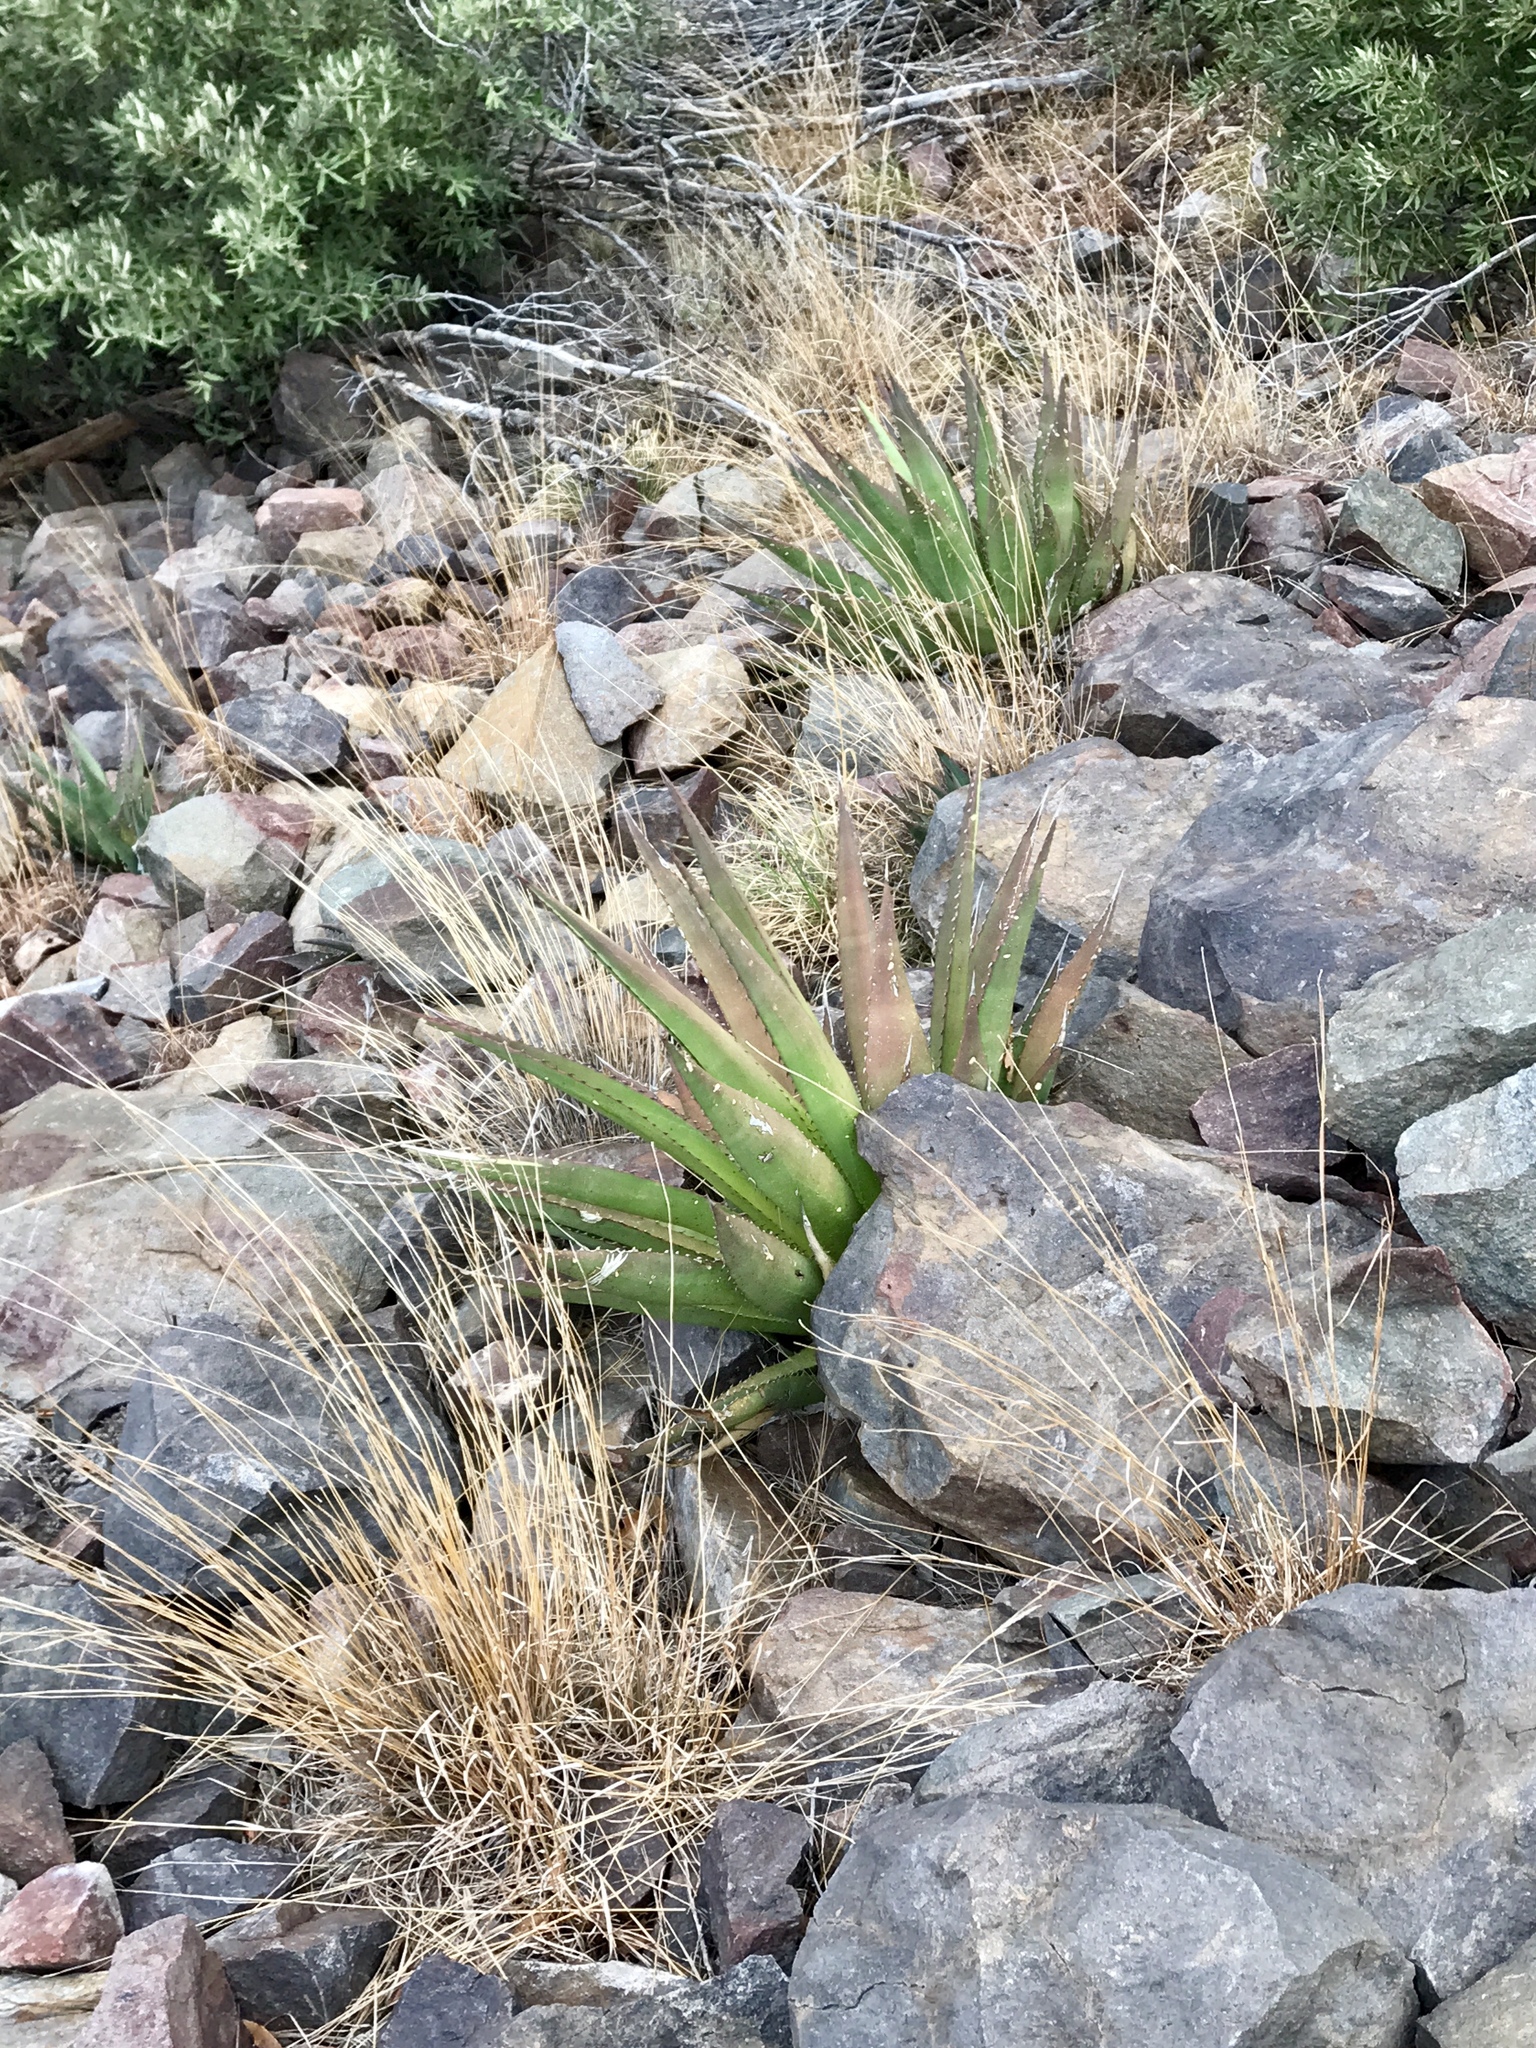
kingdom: Plantae
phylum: Tracheophyta
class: Liliopsida
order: Asparagales
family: Asparagaceae
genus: Agave
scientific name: Agave palmeri
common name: Palmer agave
